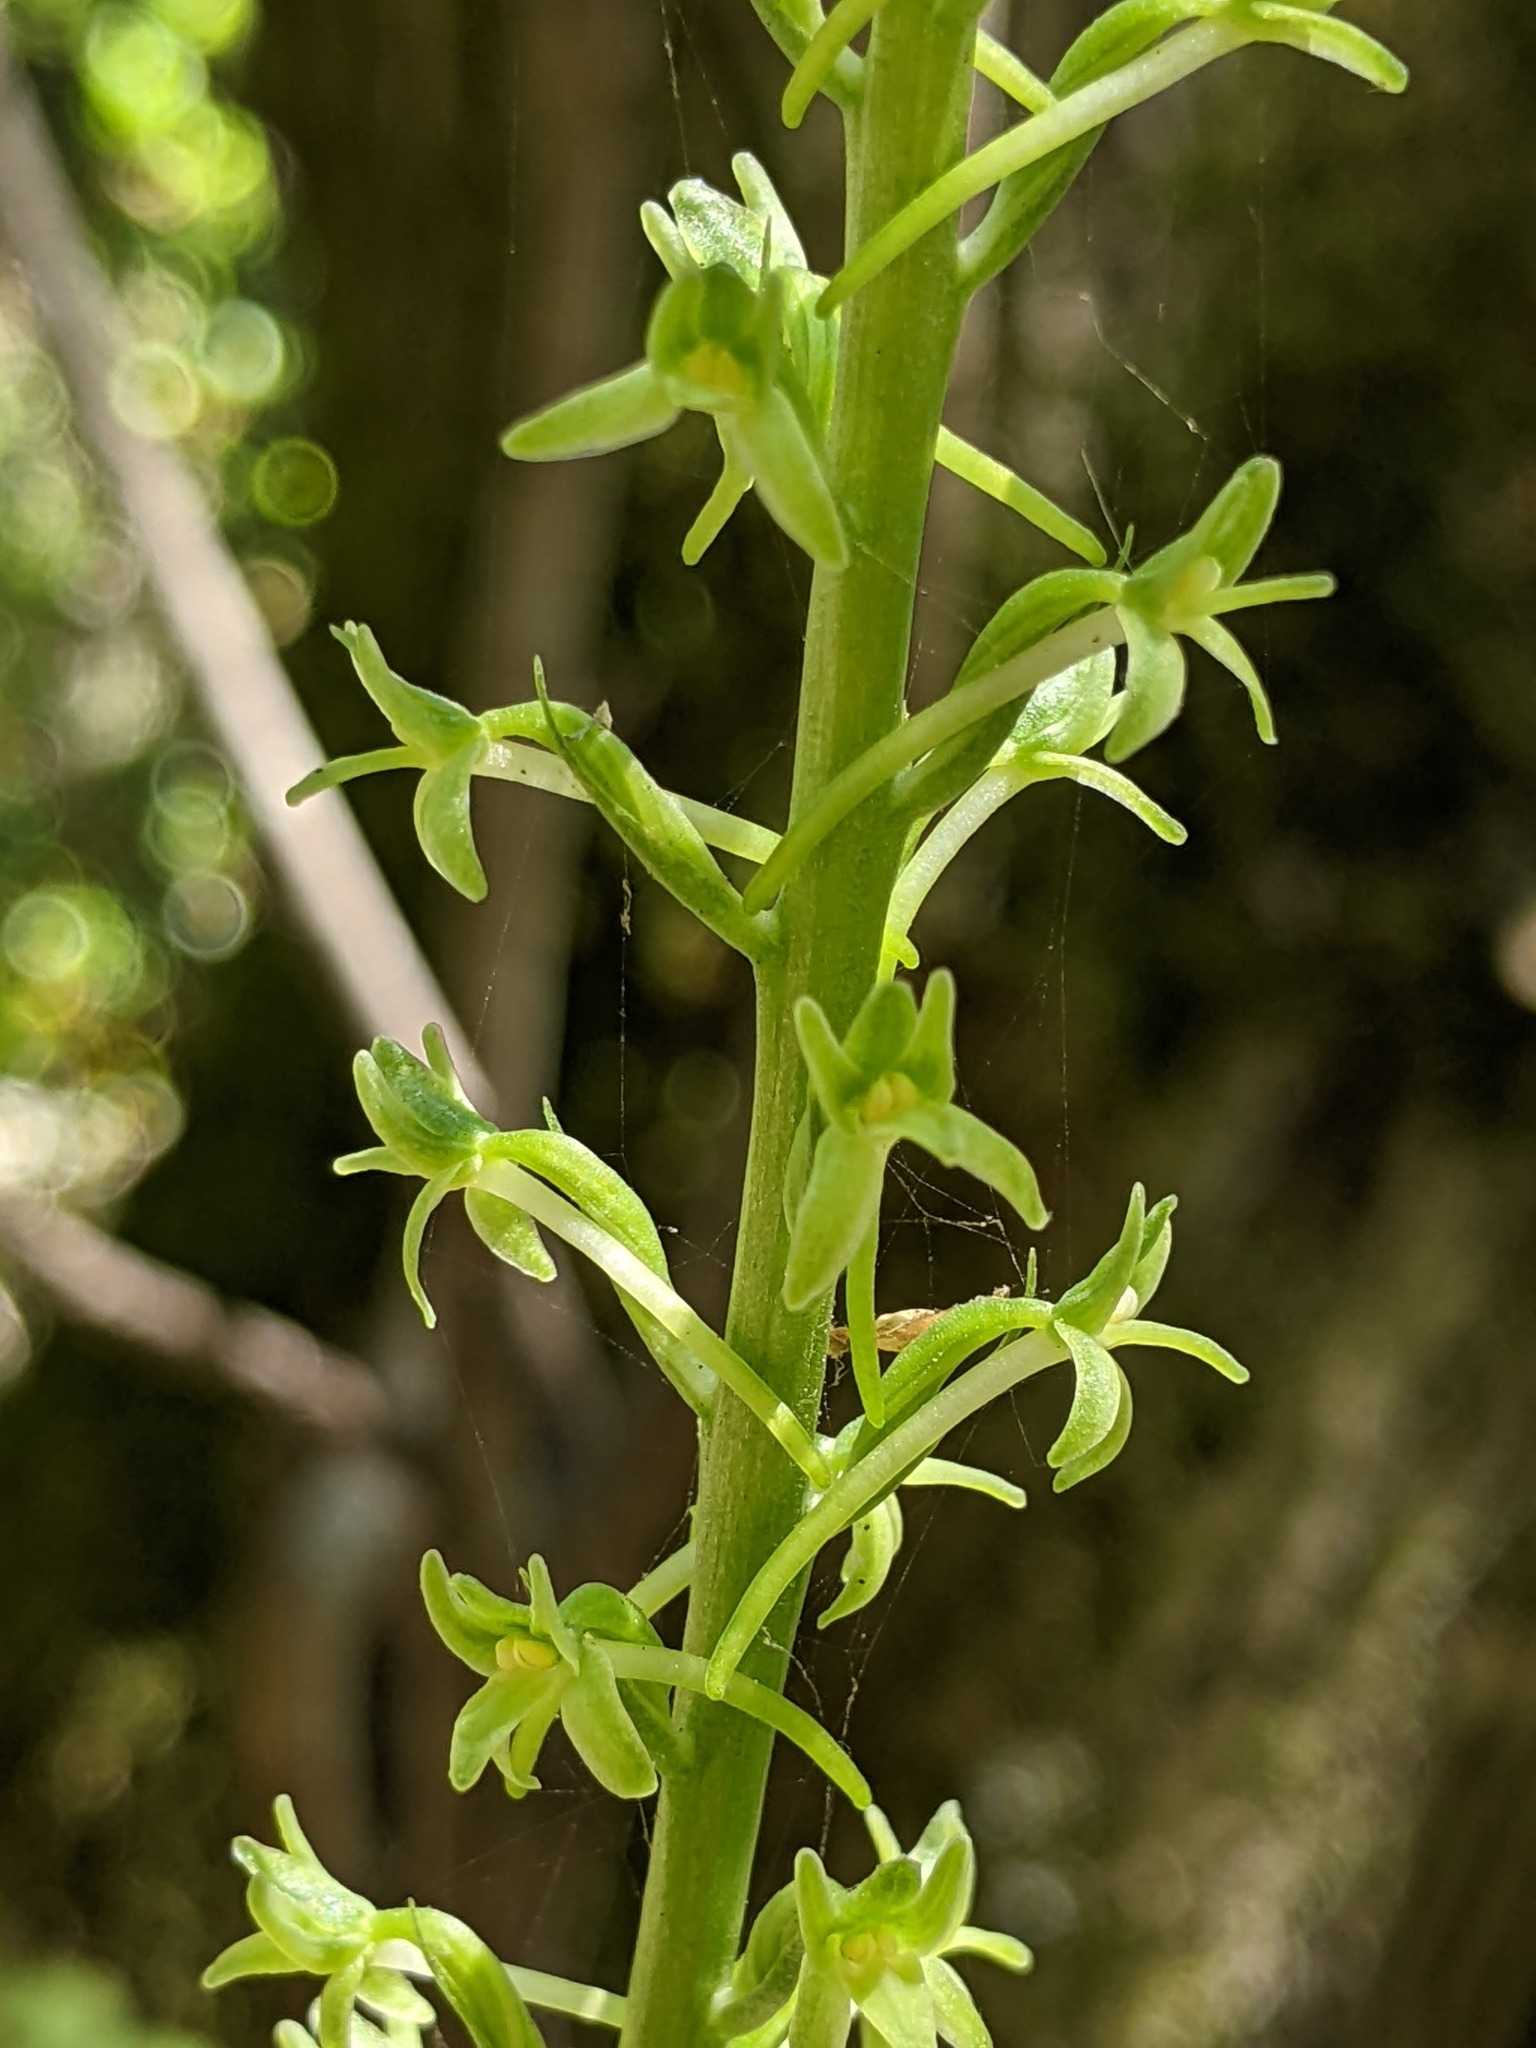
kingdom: Plantae
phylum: Tracheophyta
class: Liliopsida
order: Asparagales
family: Orchidaceae
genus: Platanthera
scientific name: Platanthera elongata
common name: Dense-flowered rein orchid
